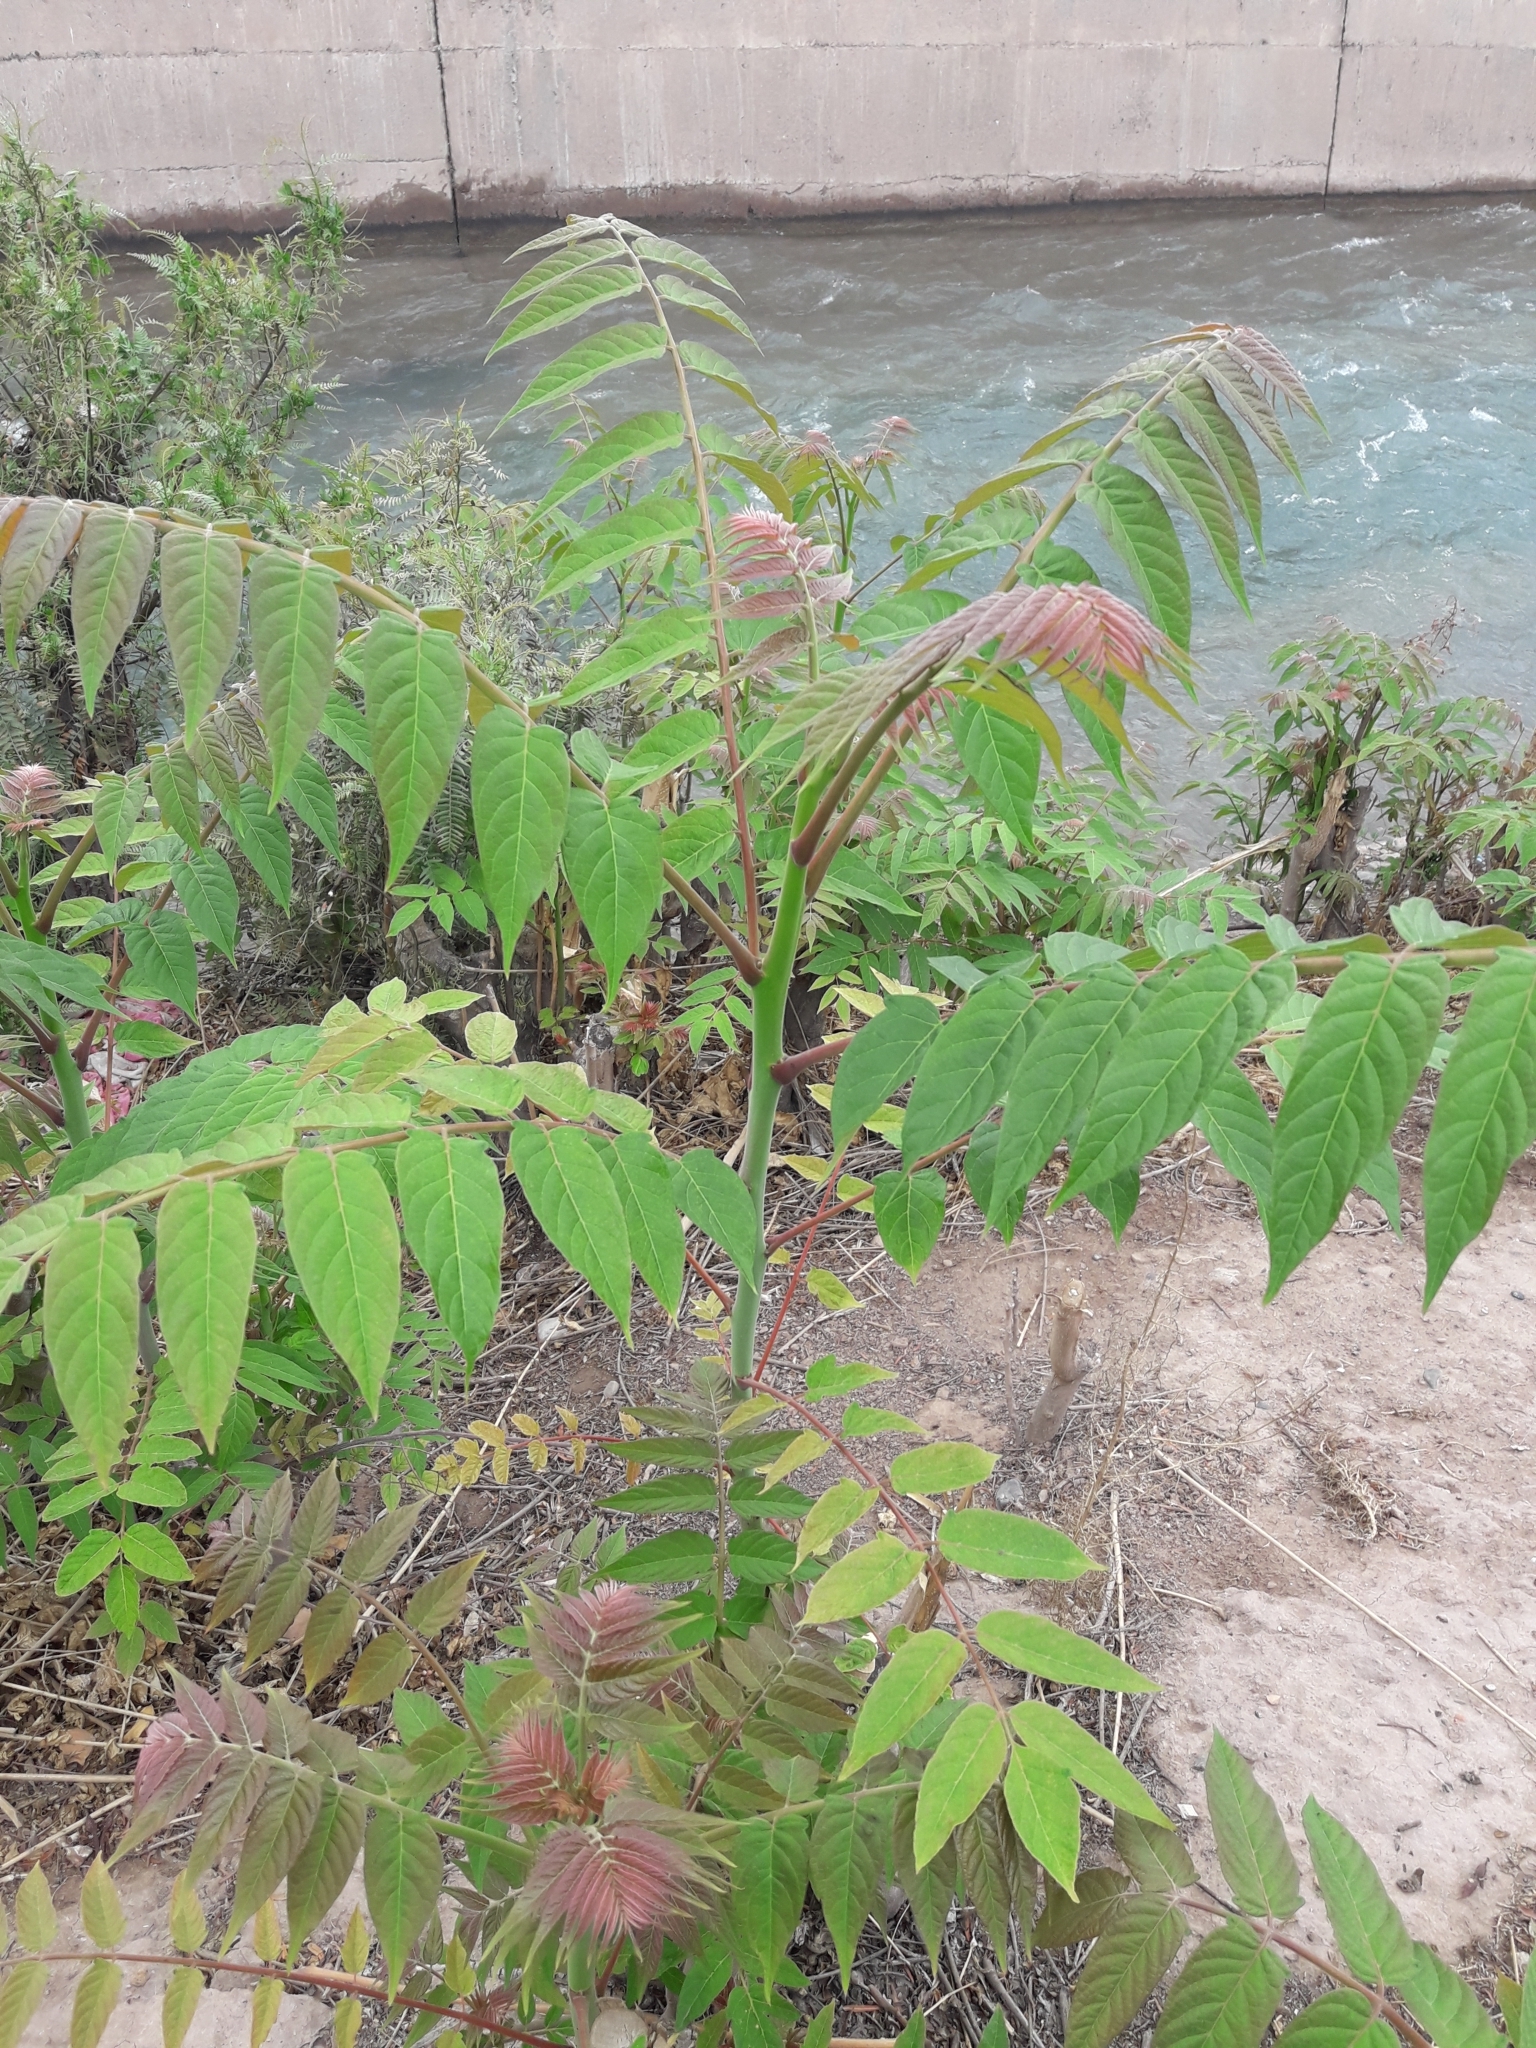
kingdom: Plantae
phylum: Tracheophyta
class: Magnoliopsida
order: Sapindales
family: Simaroubaceae
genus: Ailanthus
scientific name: Ailanthus altissima
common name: Tree-of-heaven
